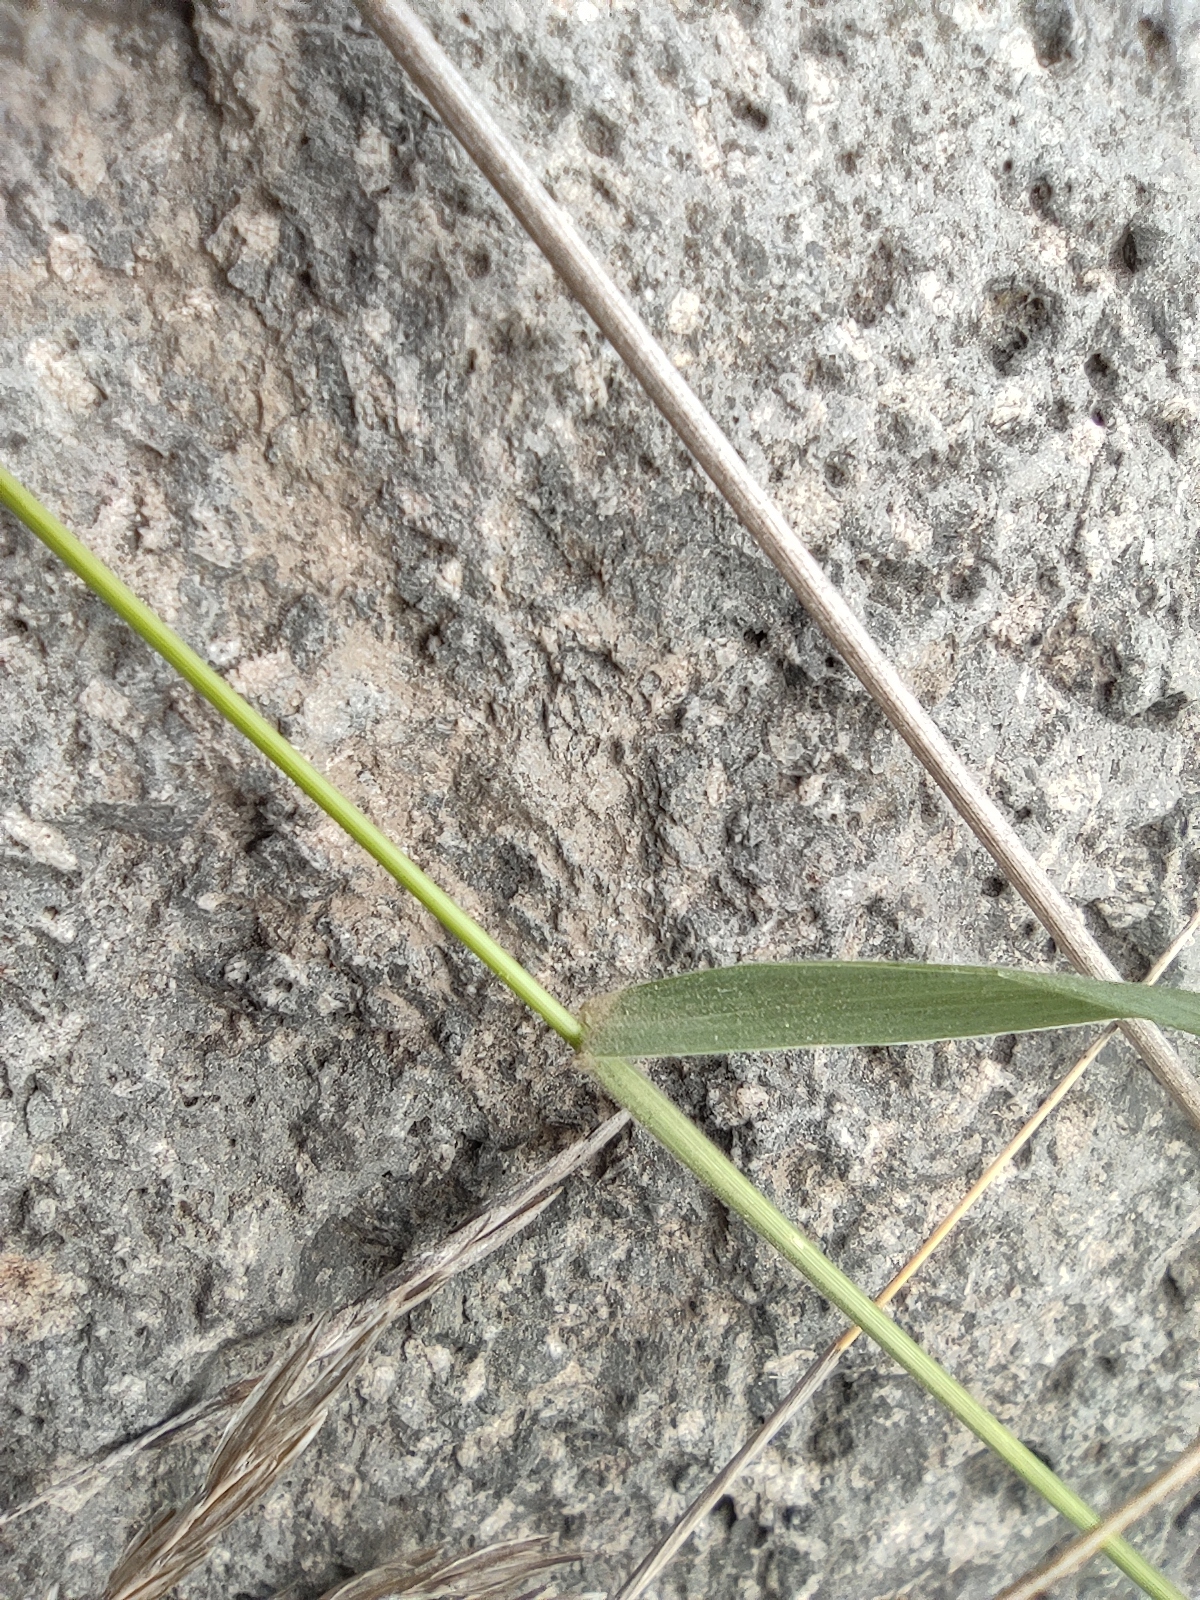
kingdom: Plantae
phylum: Tracheophyta
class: Liliopsida
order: Poales
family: Poaceae
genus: Enneapogon
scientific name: Enneapogon cenchroides
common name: Soft feather pappusgrass
